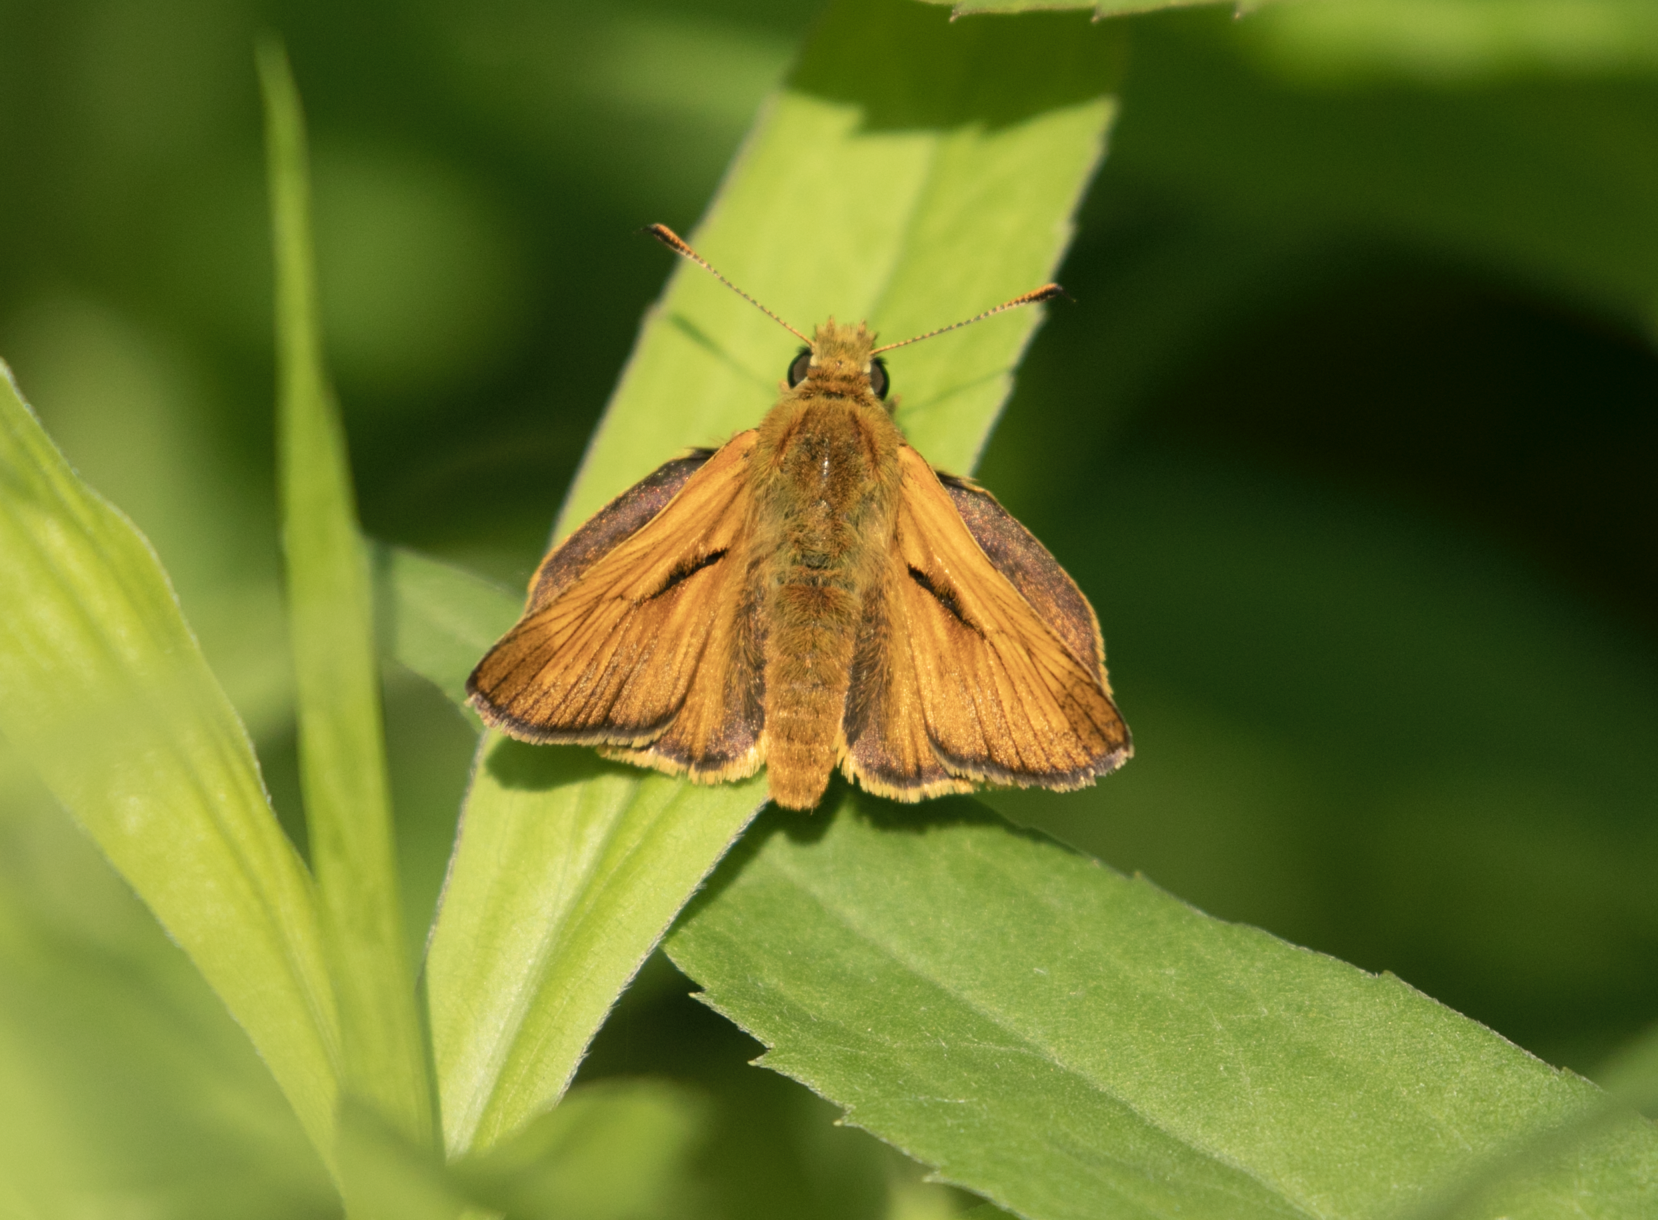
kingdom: Animalia
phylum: Arthropoda
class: Insecta
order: Lepidoptera
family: Hesperiidae
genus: Ochlodes
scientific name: Ochlodes venata
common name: Large skipper
